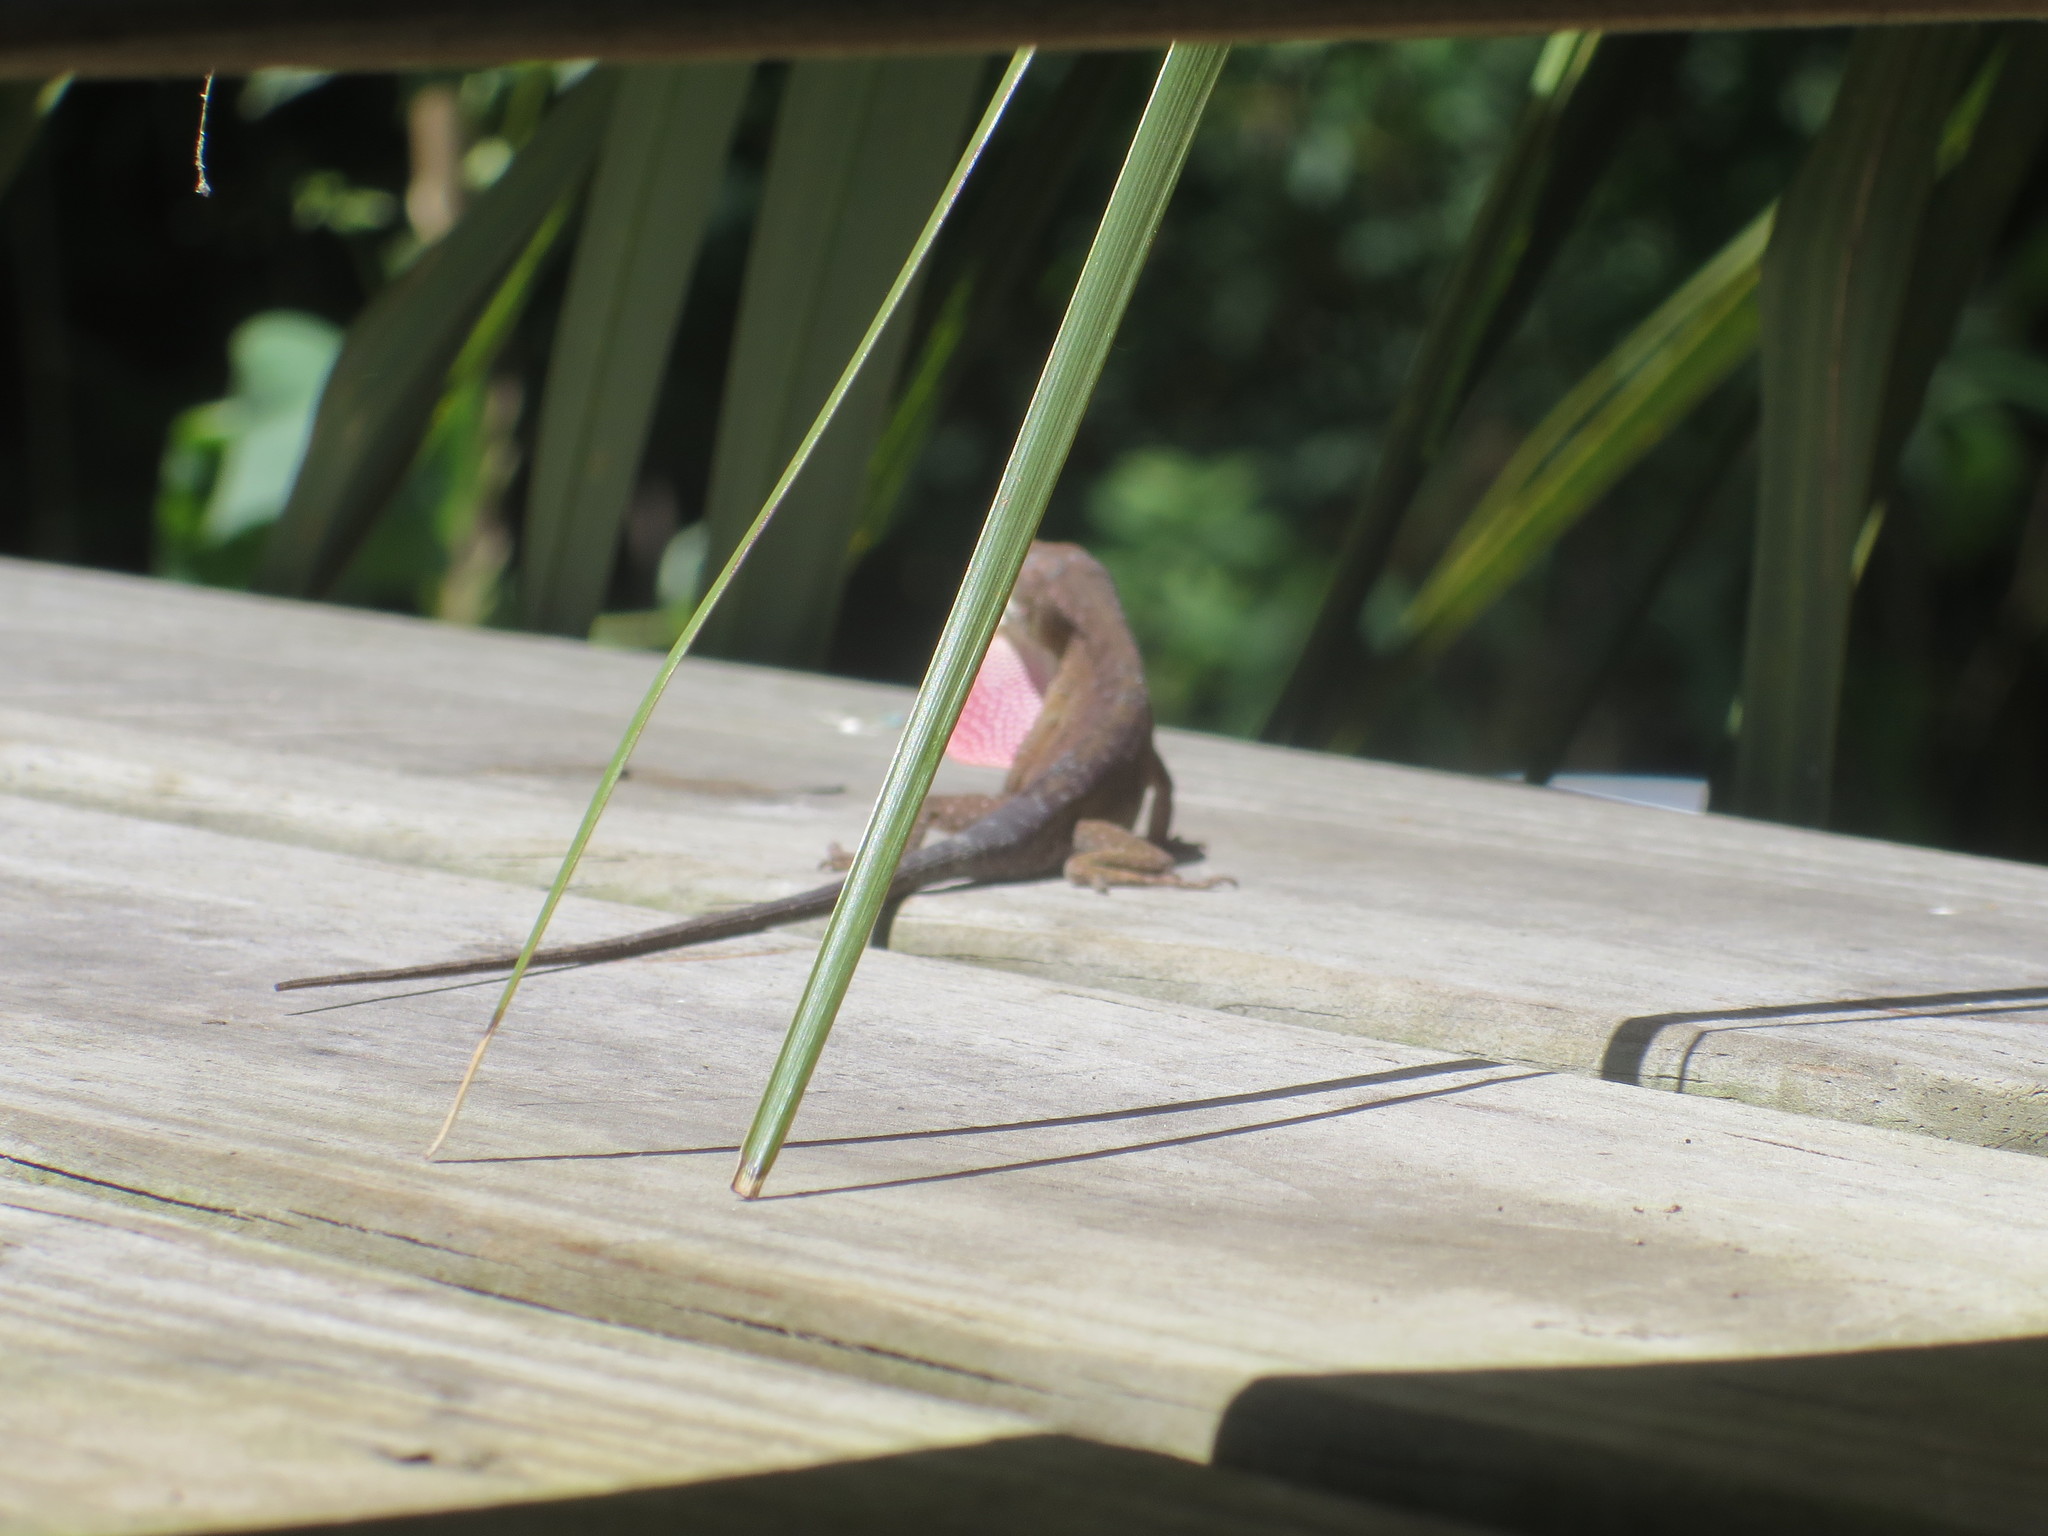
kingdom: Animalia
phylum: Chordata
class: Squamata
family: Dactyloidae
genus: Anolis
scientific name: Anolis carolinensis
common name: Green anole
